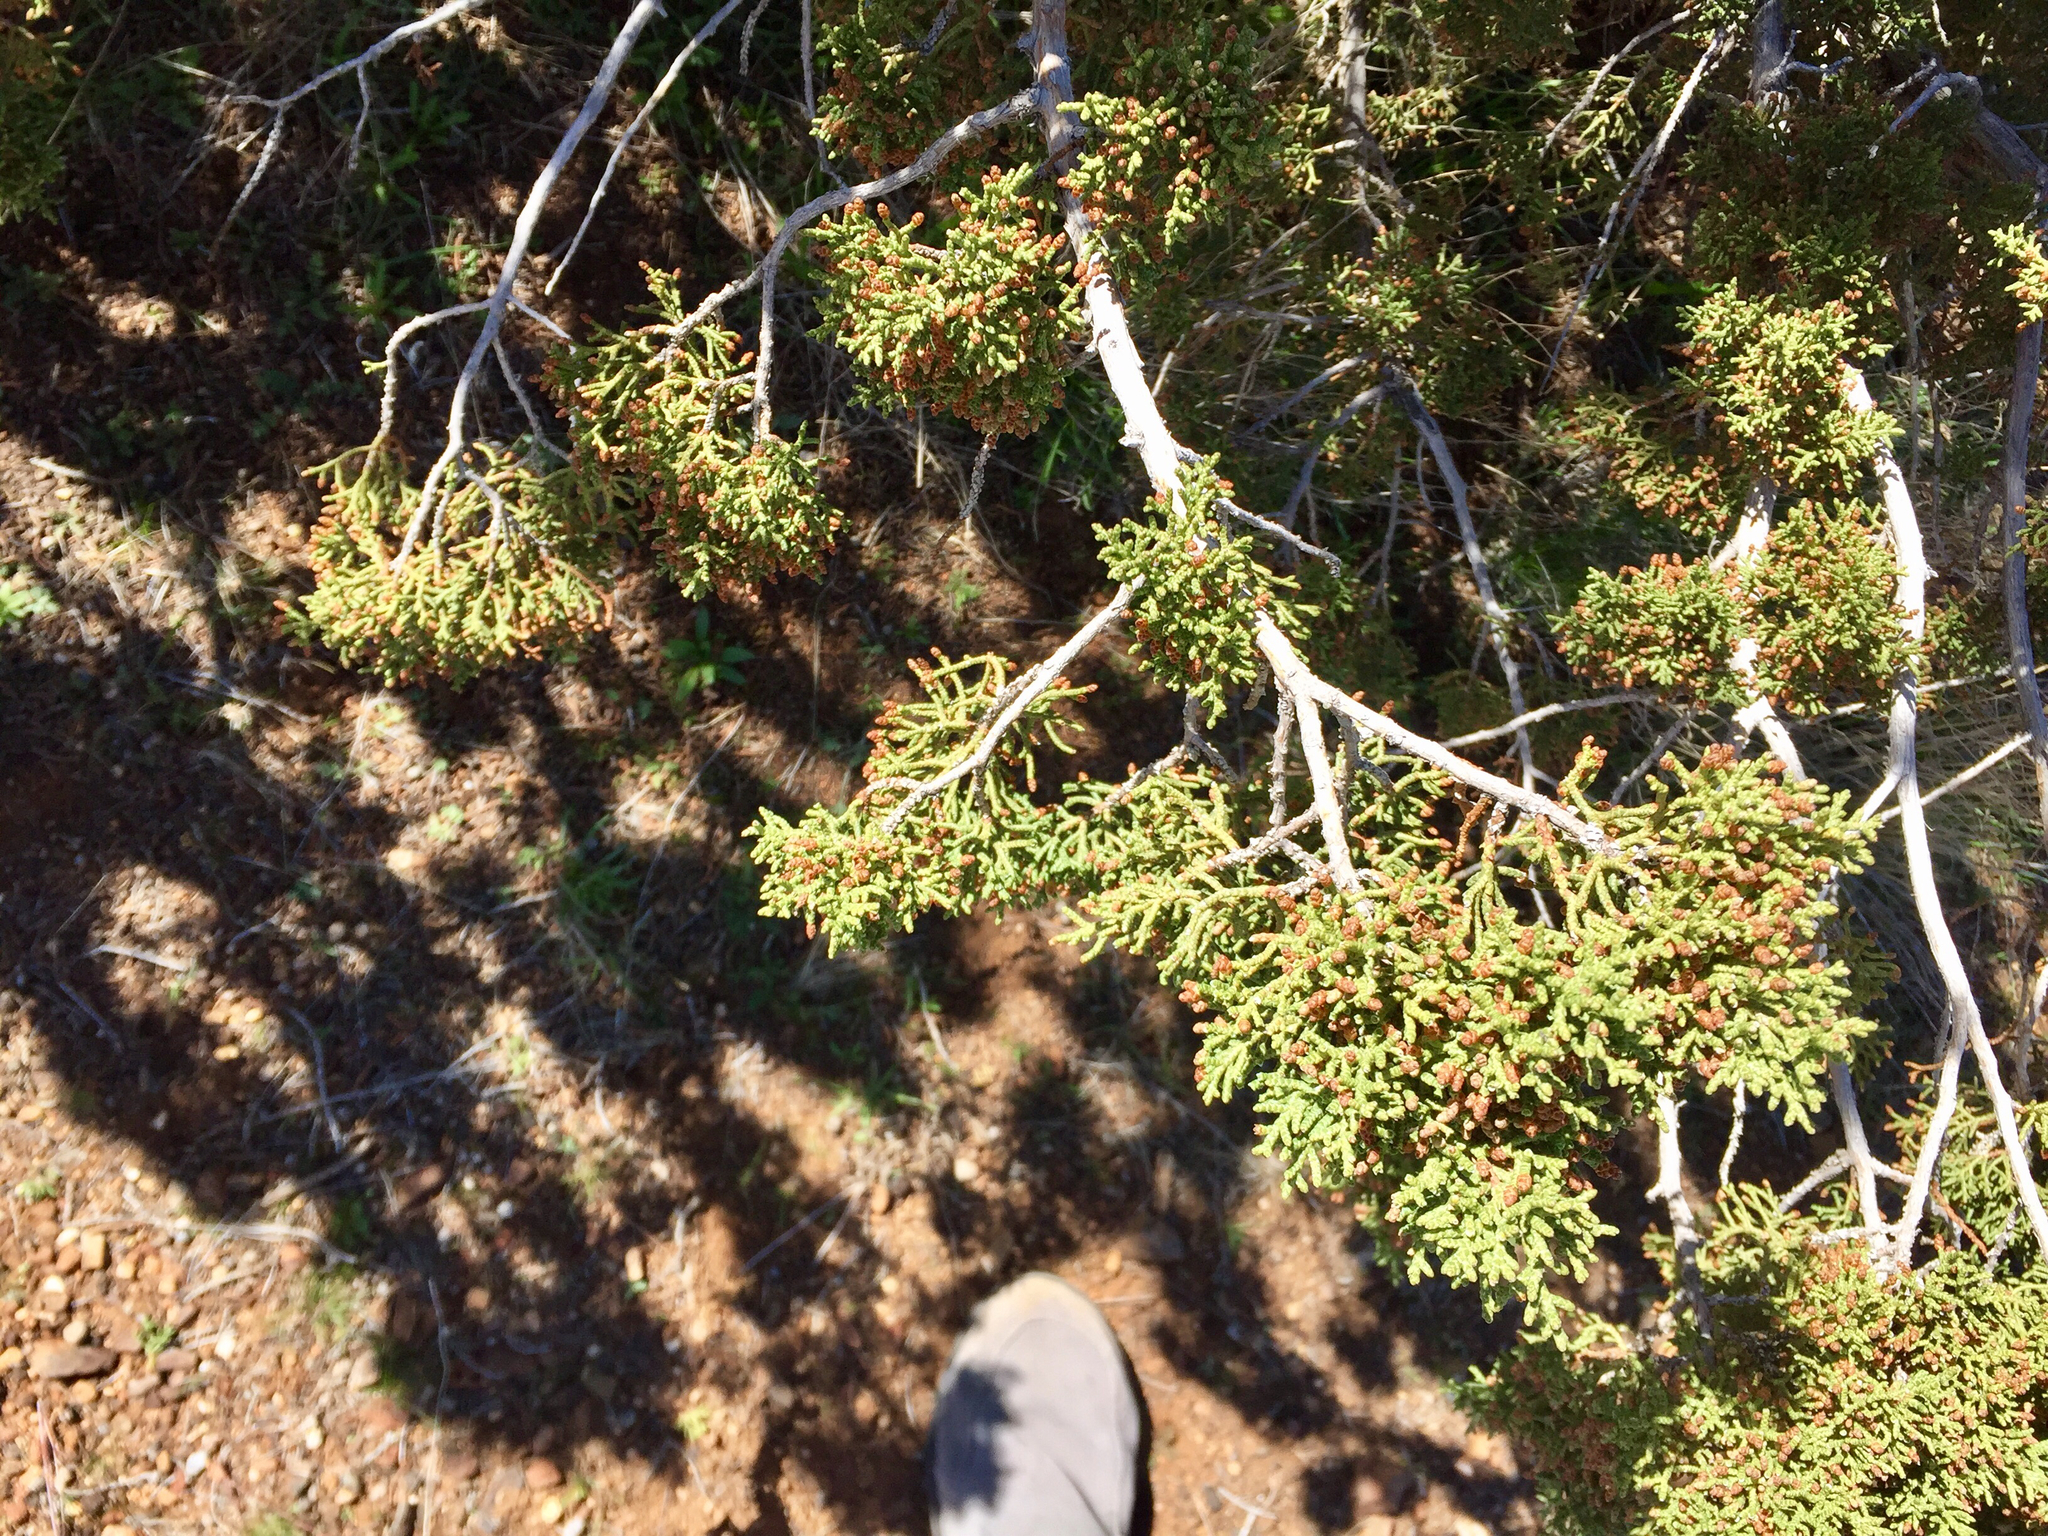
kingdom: Plantae
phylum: Tracheophyta
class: Pinopsida
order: Pinales
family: Cupressaceae
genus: Juniperus
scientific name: Juniperus osteosperma
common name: Utah juniper
